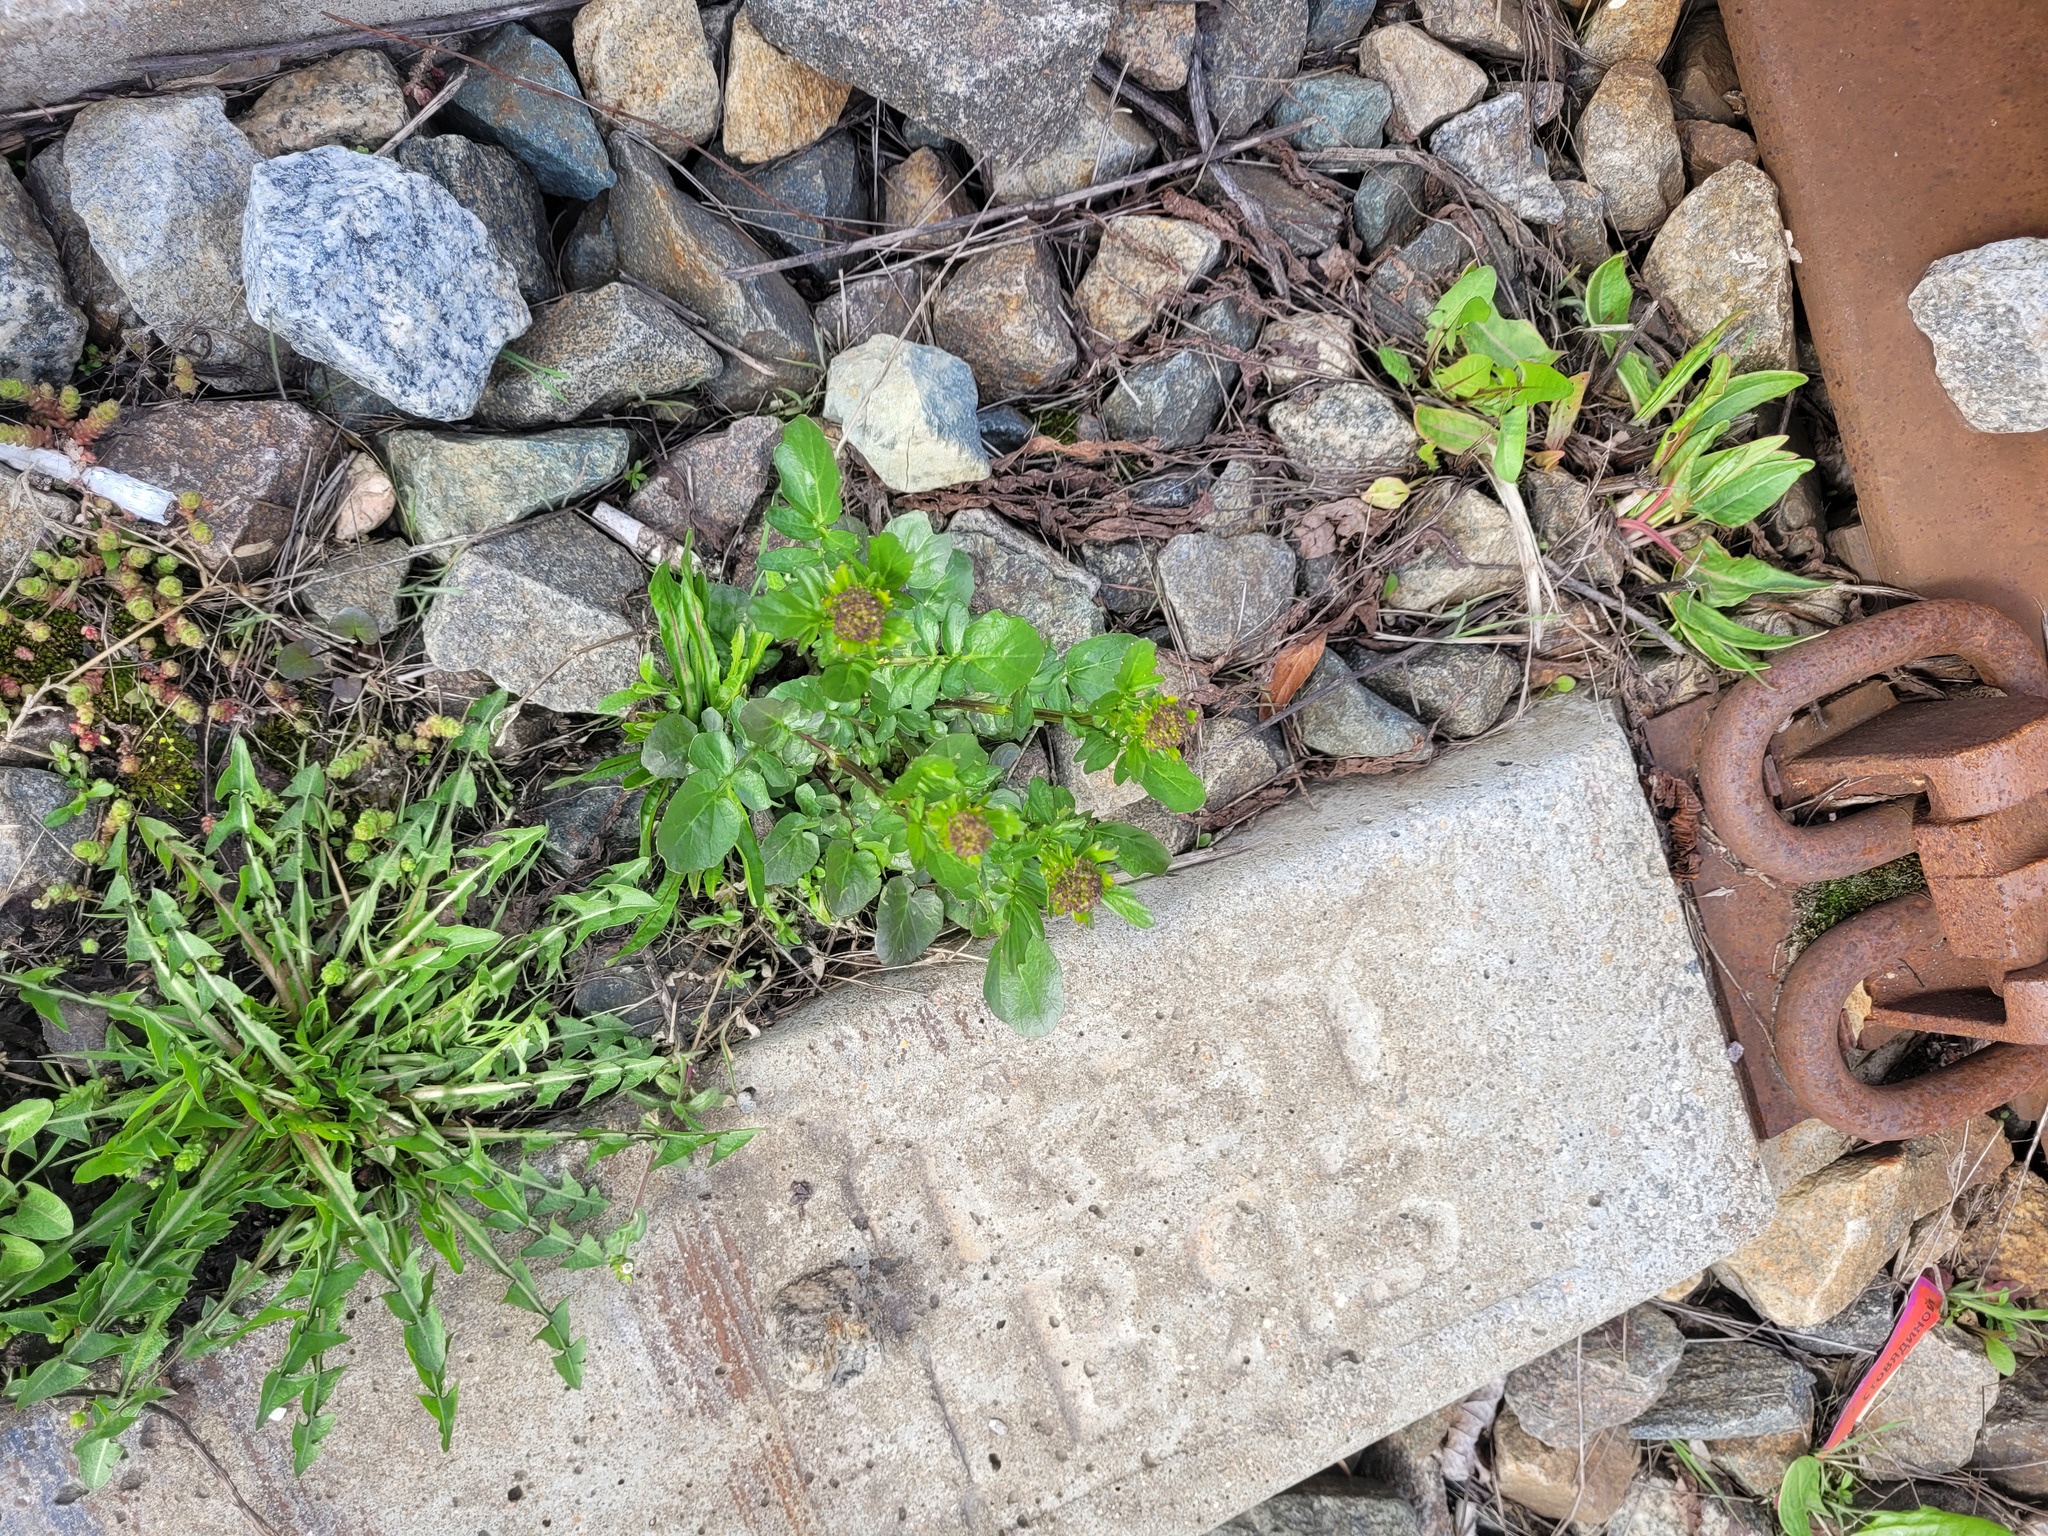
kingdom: Plantae
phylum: Tracheophyta
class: Magnoliopsida
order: Brassicales
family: Brassicaceae
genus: Barbarea
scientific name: Barbarea vulgaris
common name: Cressy-greens
